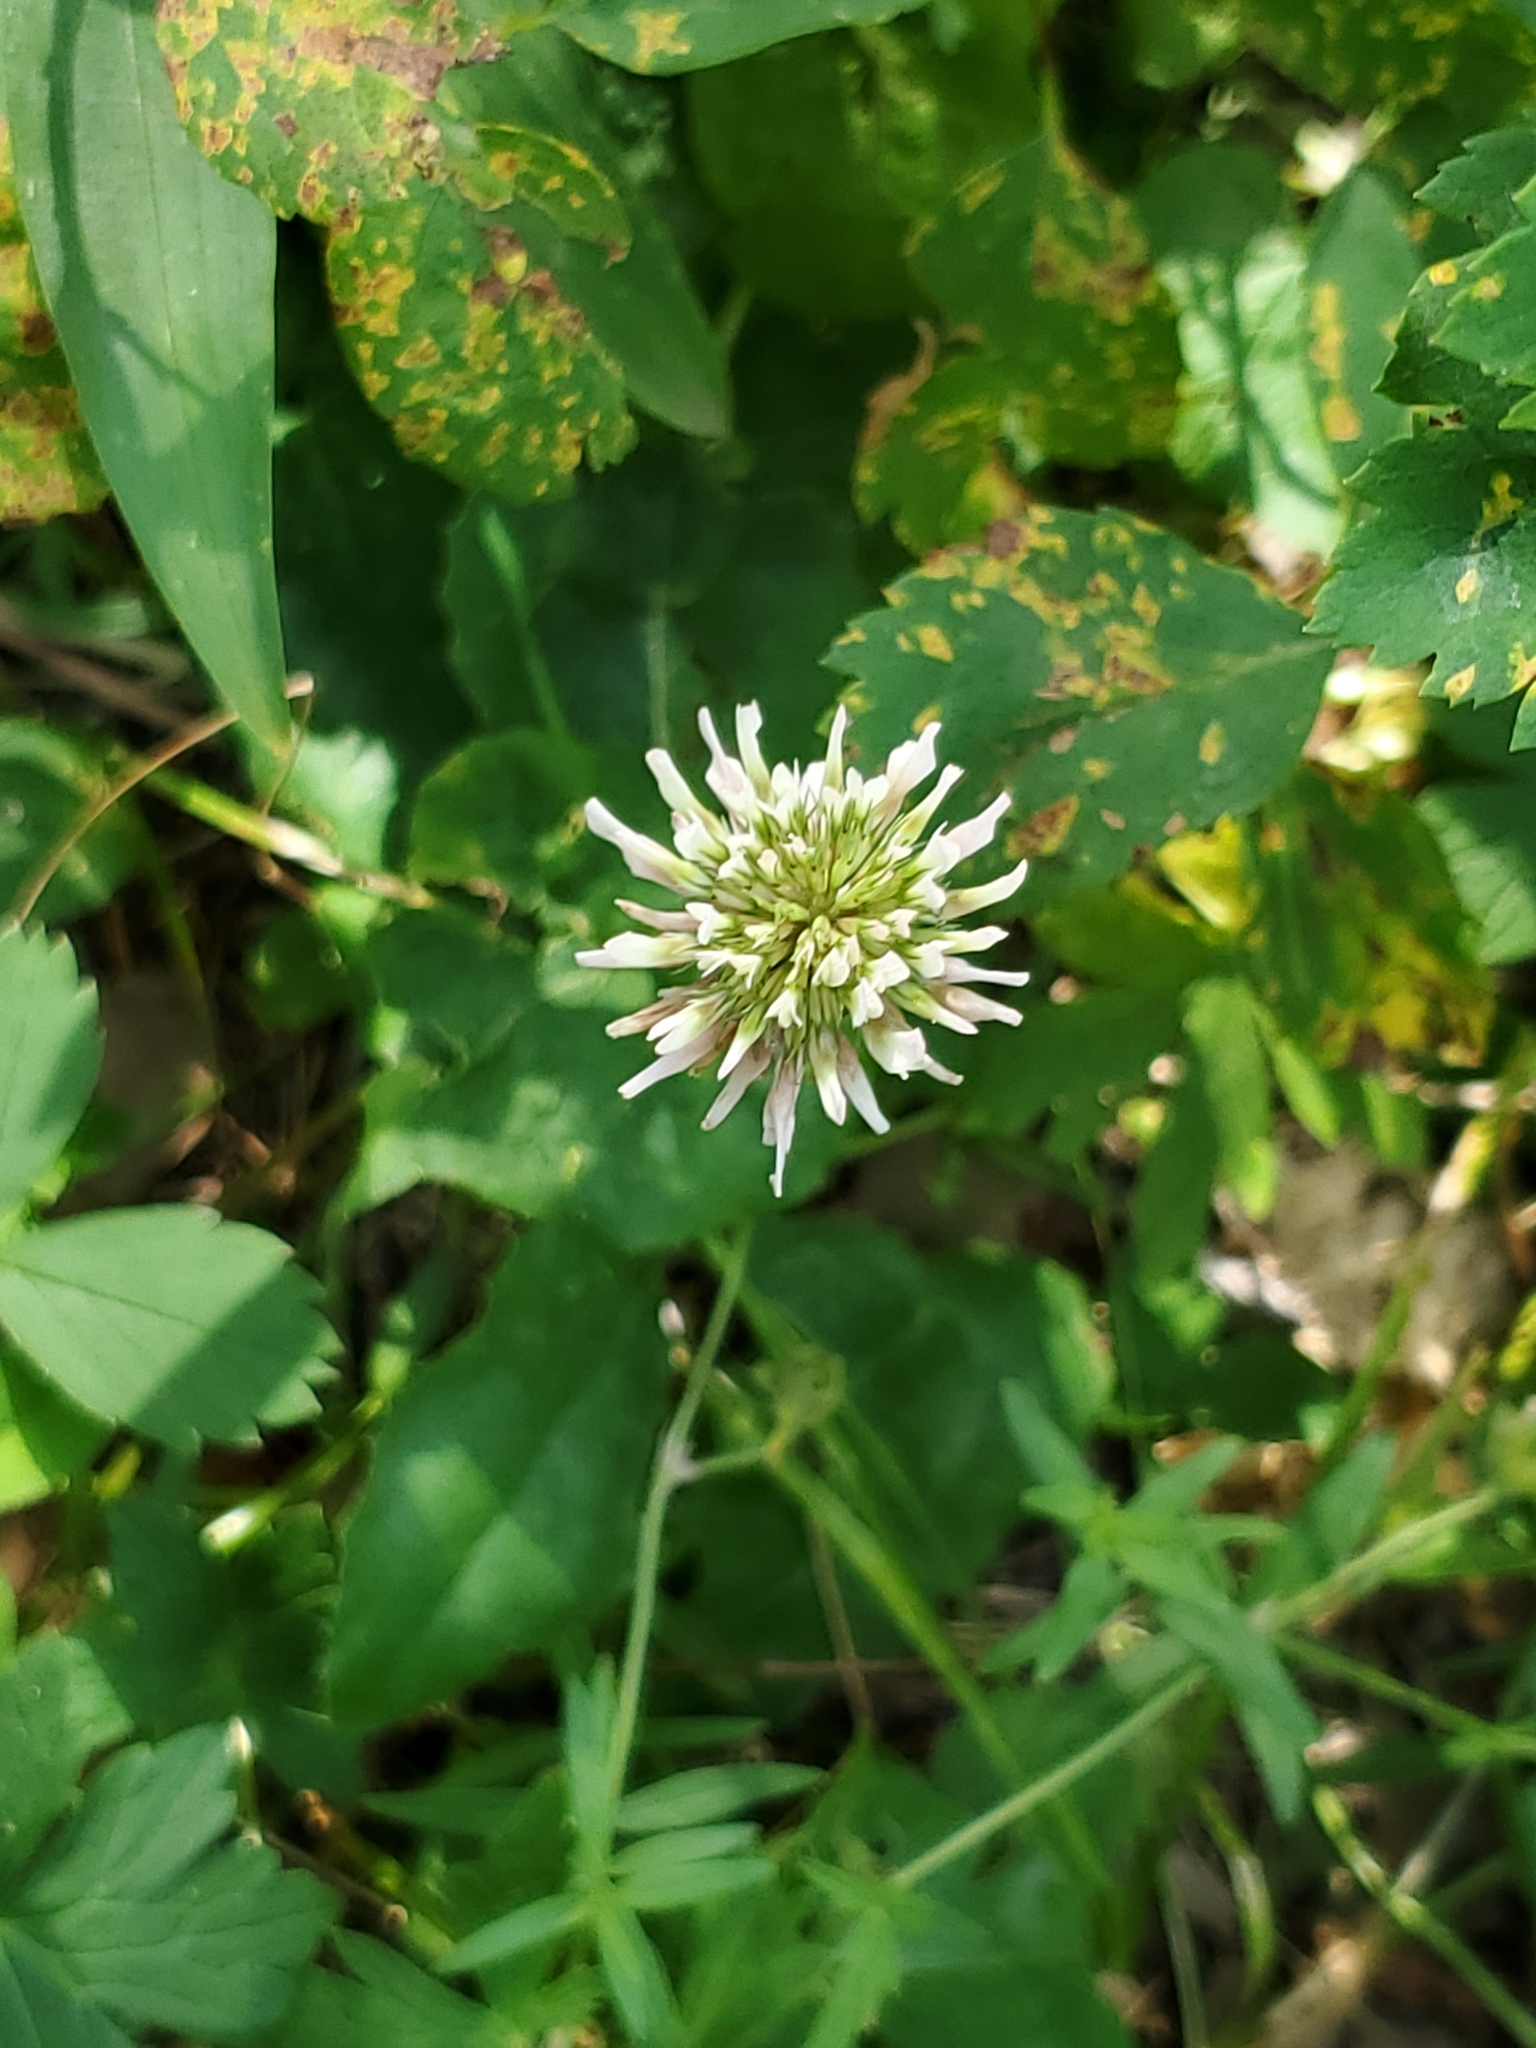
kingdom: Plantae
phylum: Tracheophyta
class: Magnoliopsida
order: Fabales
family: Fabaceae
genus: Trifolium
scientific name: Trifolium repens
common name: White clover
